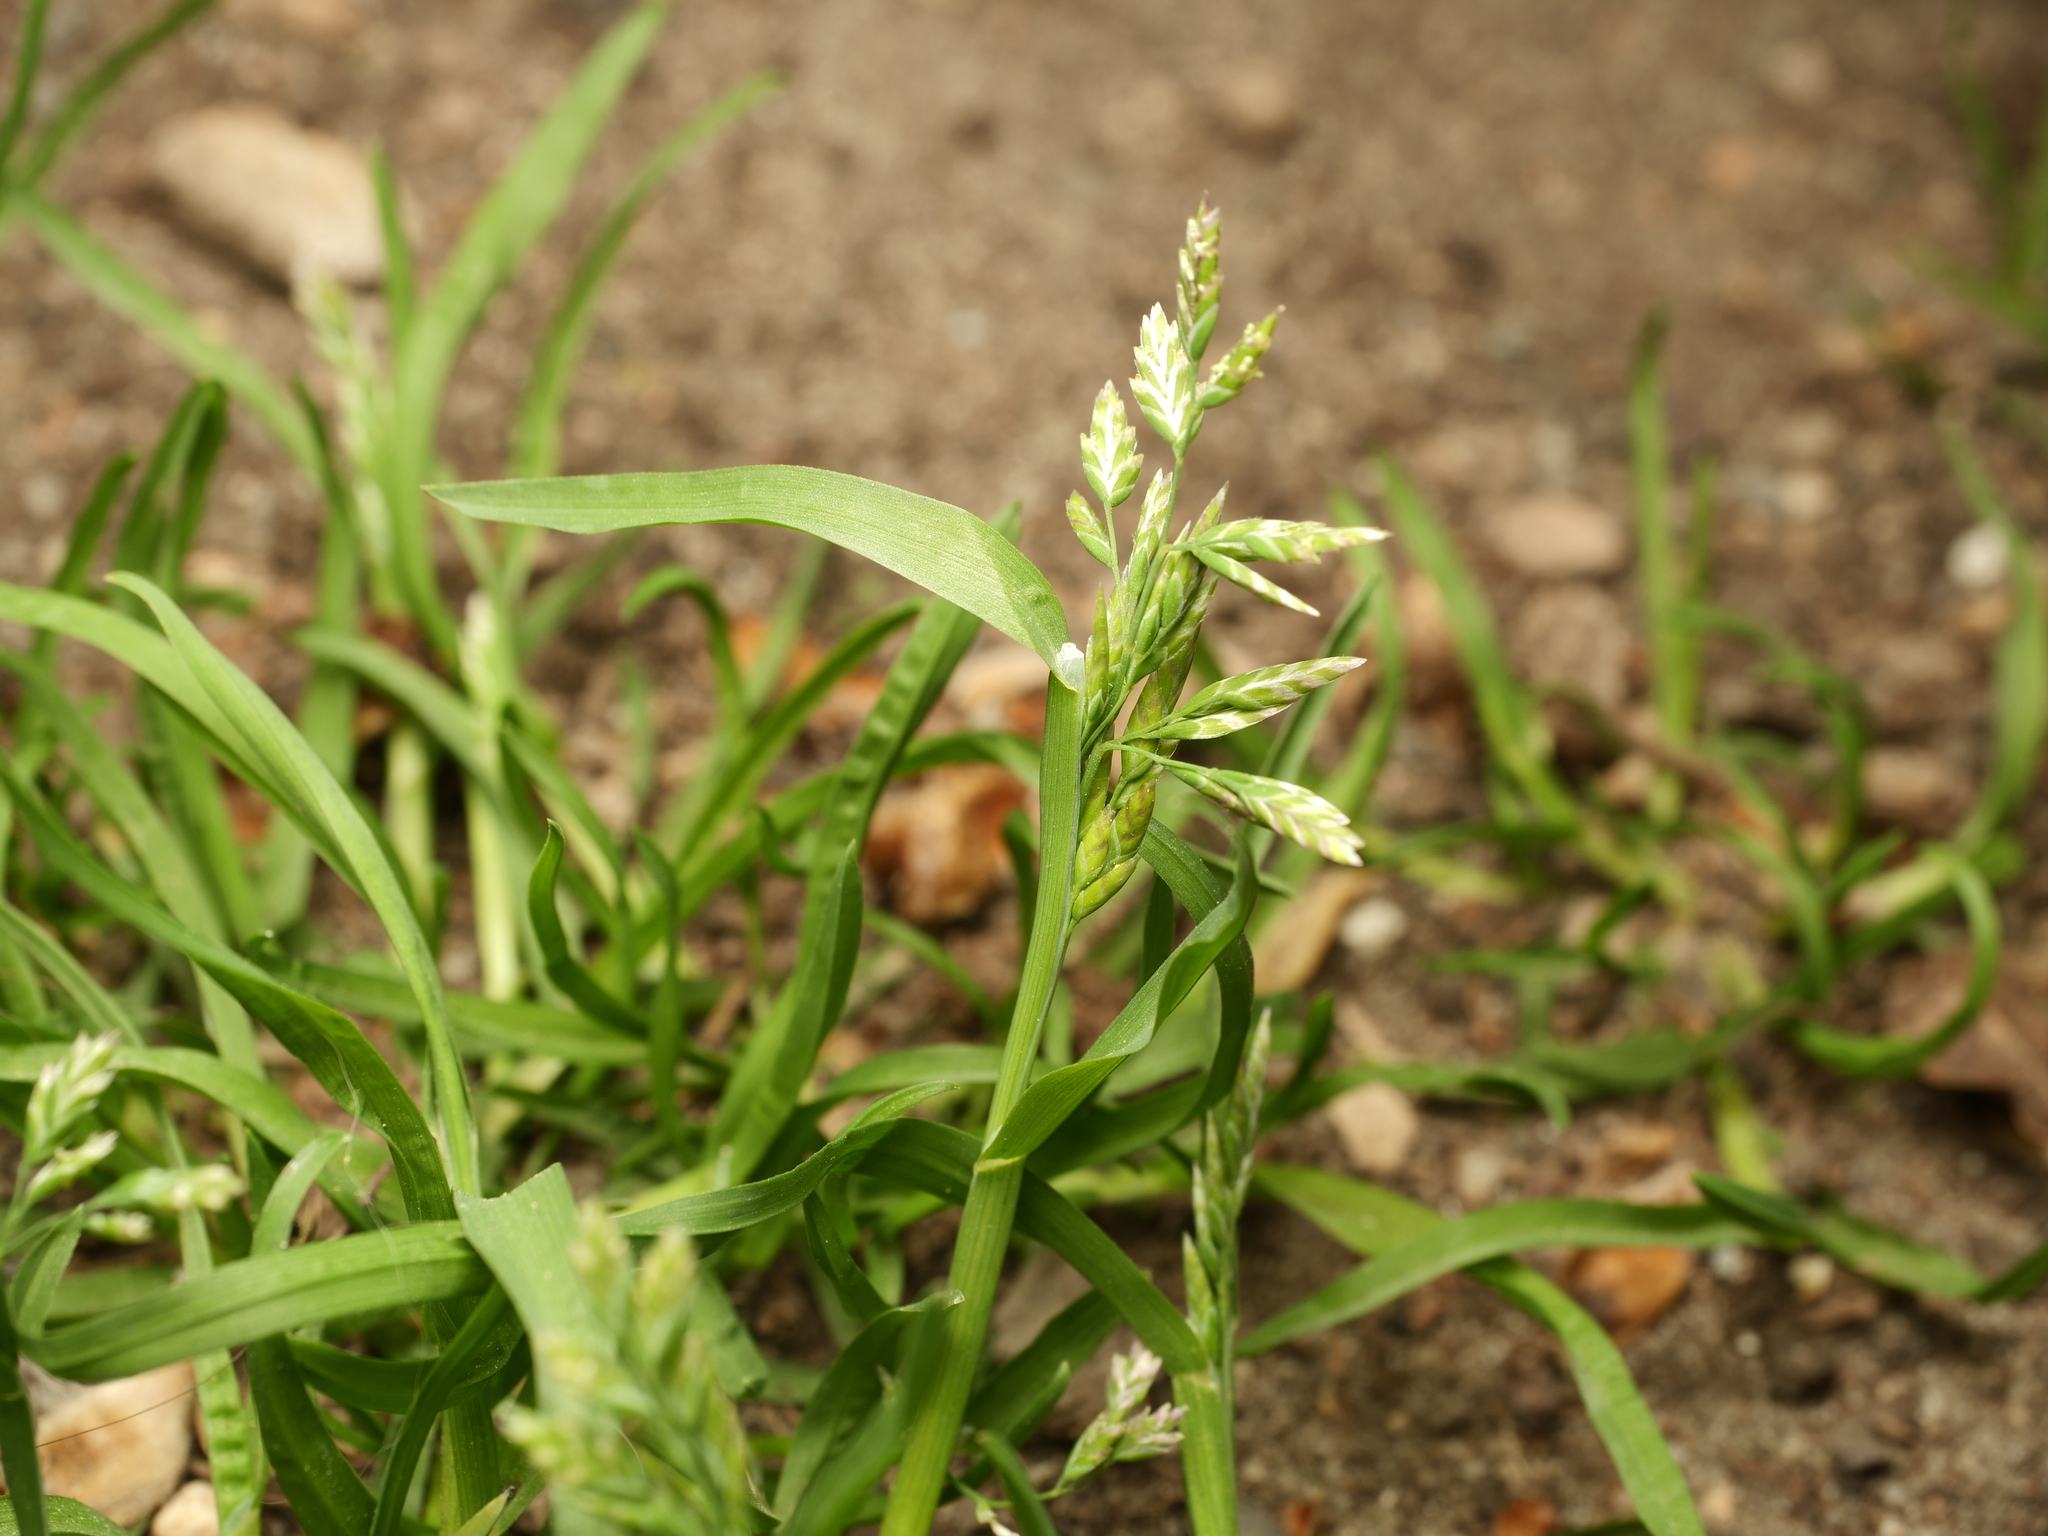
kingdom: Plantae
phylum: Tracheophyta
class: Liliopsida
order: Poales
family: Poaceae
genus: Poa
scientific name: Poa annua
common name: Annual bluegrass
